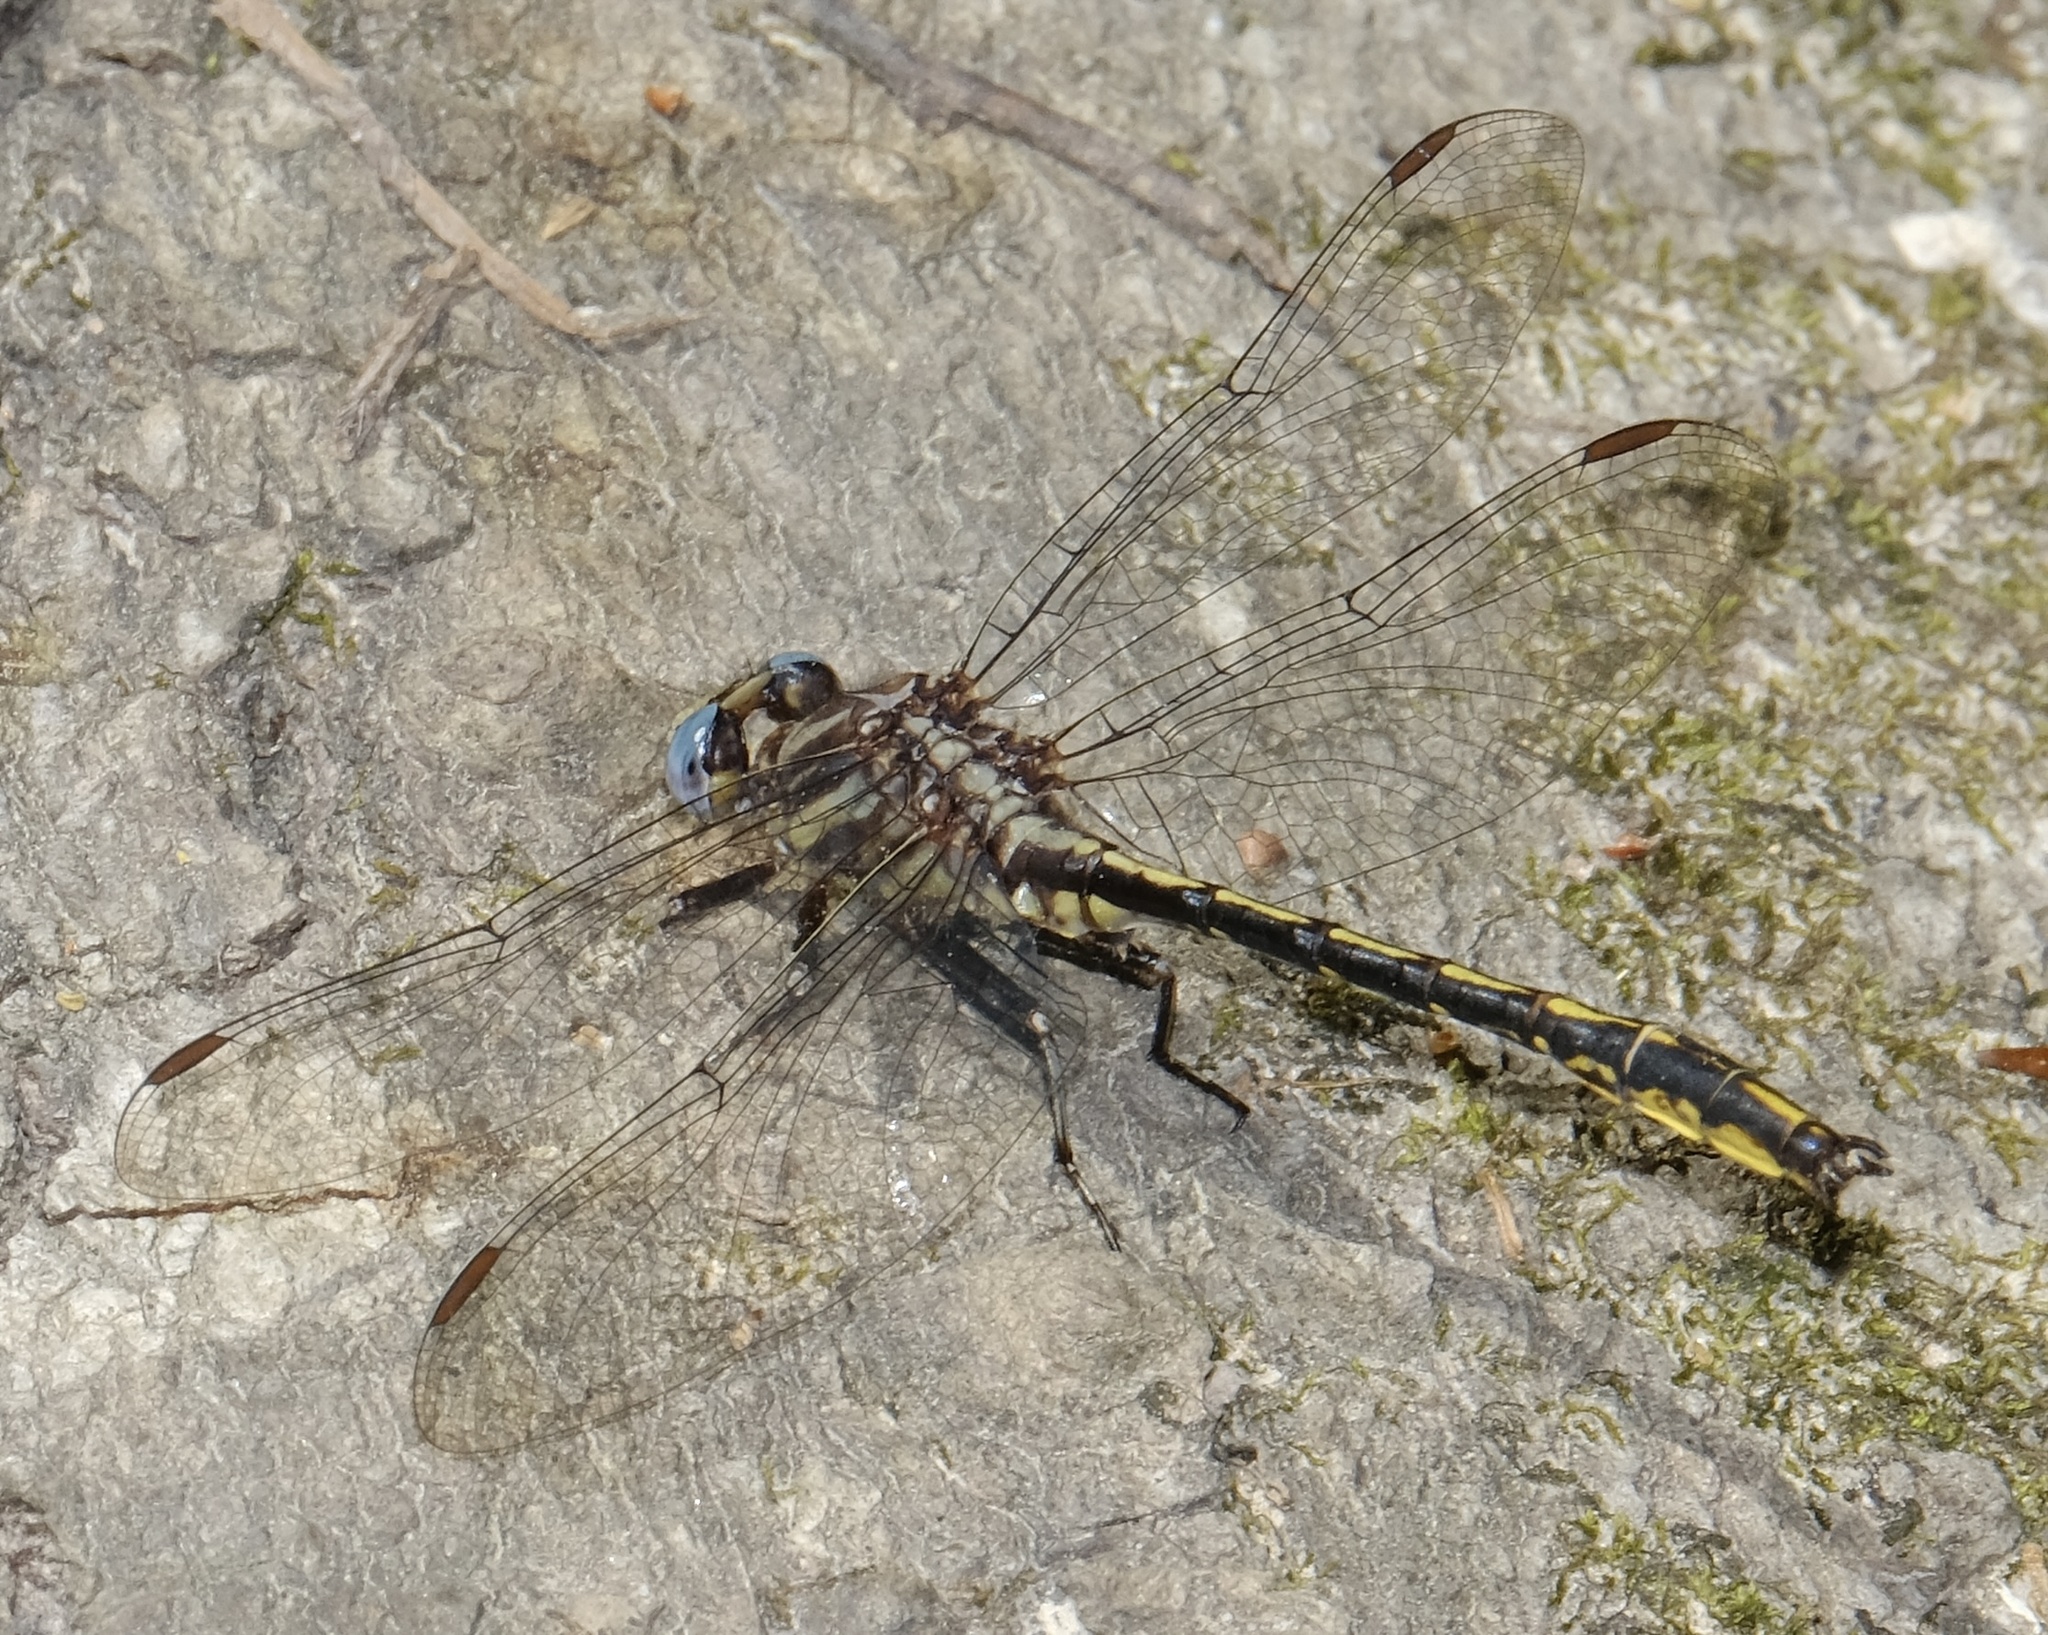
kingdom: Animalia
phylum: Arthropoda
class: Insecta
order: Odonata
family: Gomphidae
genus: Phanogomphus
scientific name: Phanogomphus oklahomensis
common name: Oklahoma clubtail
